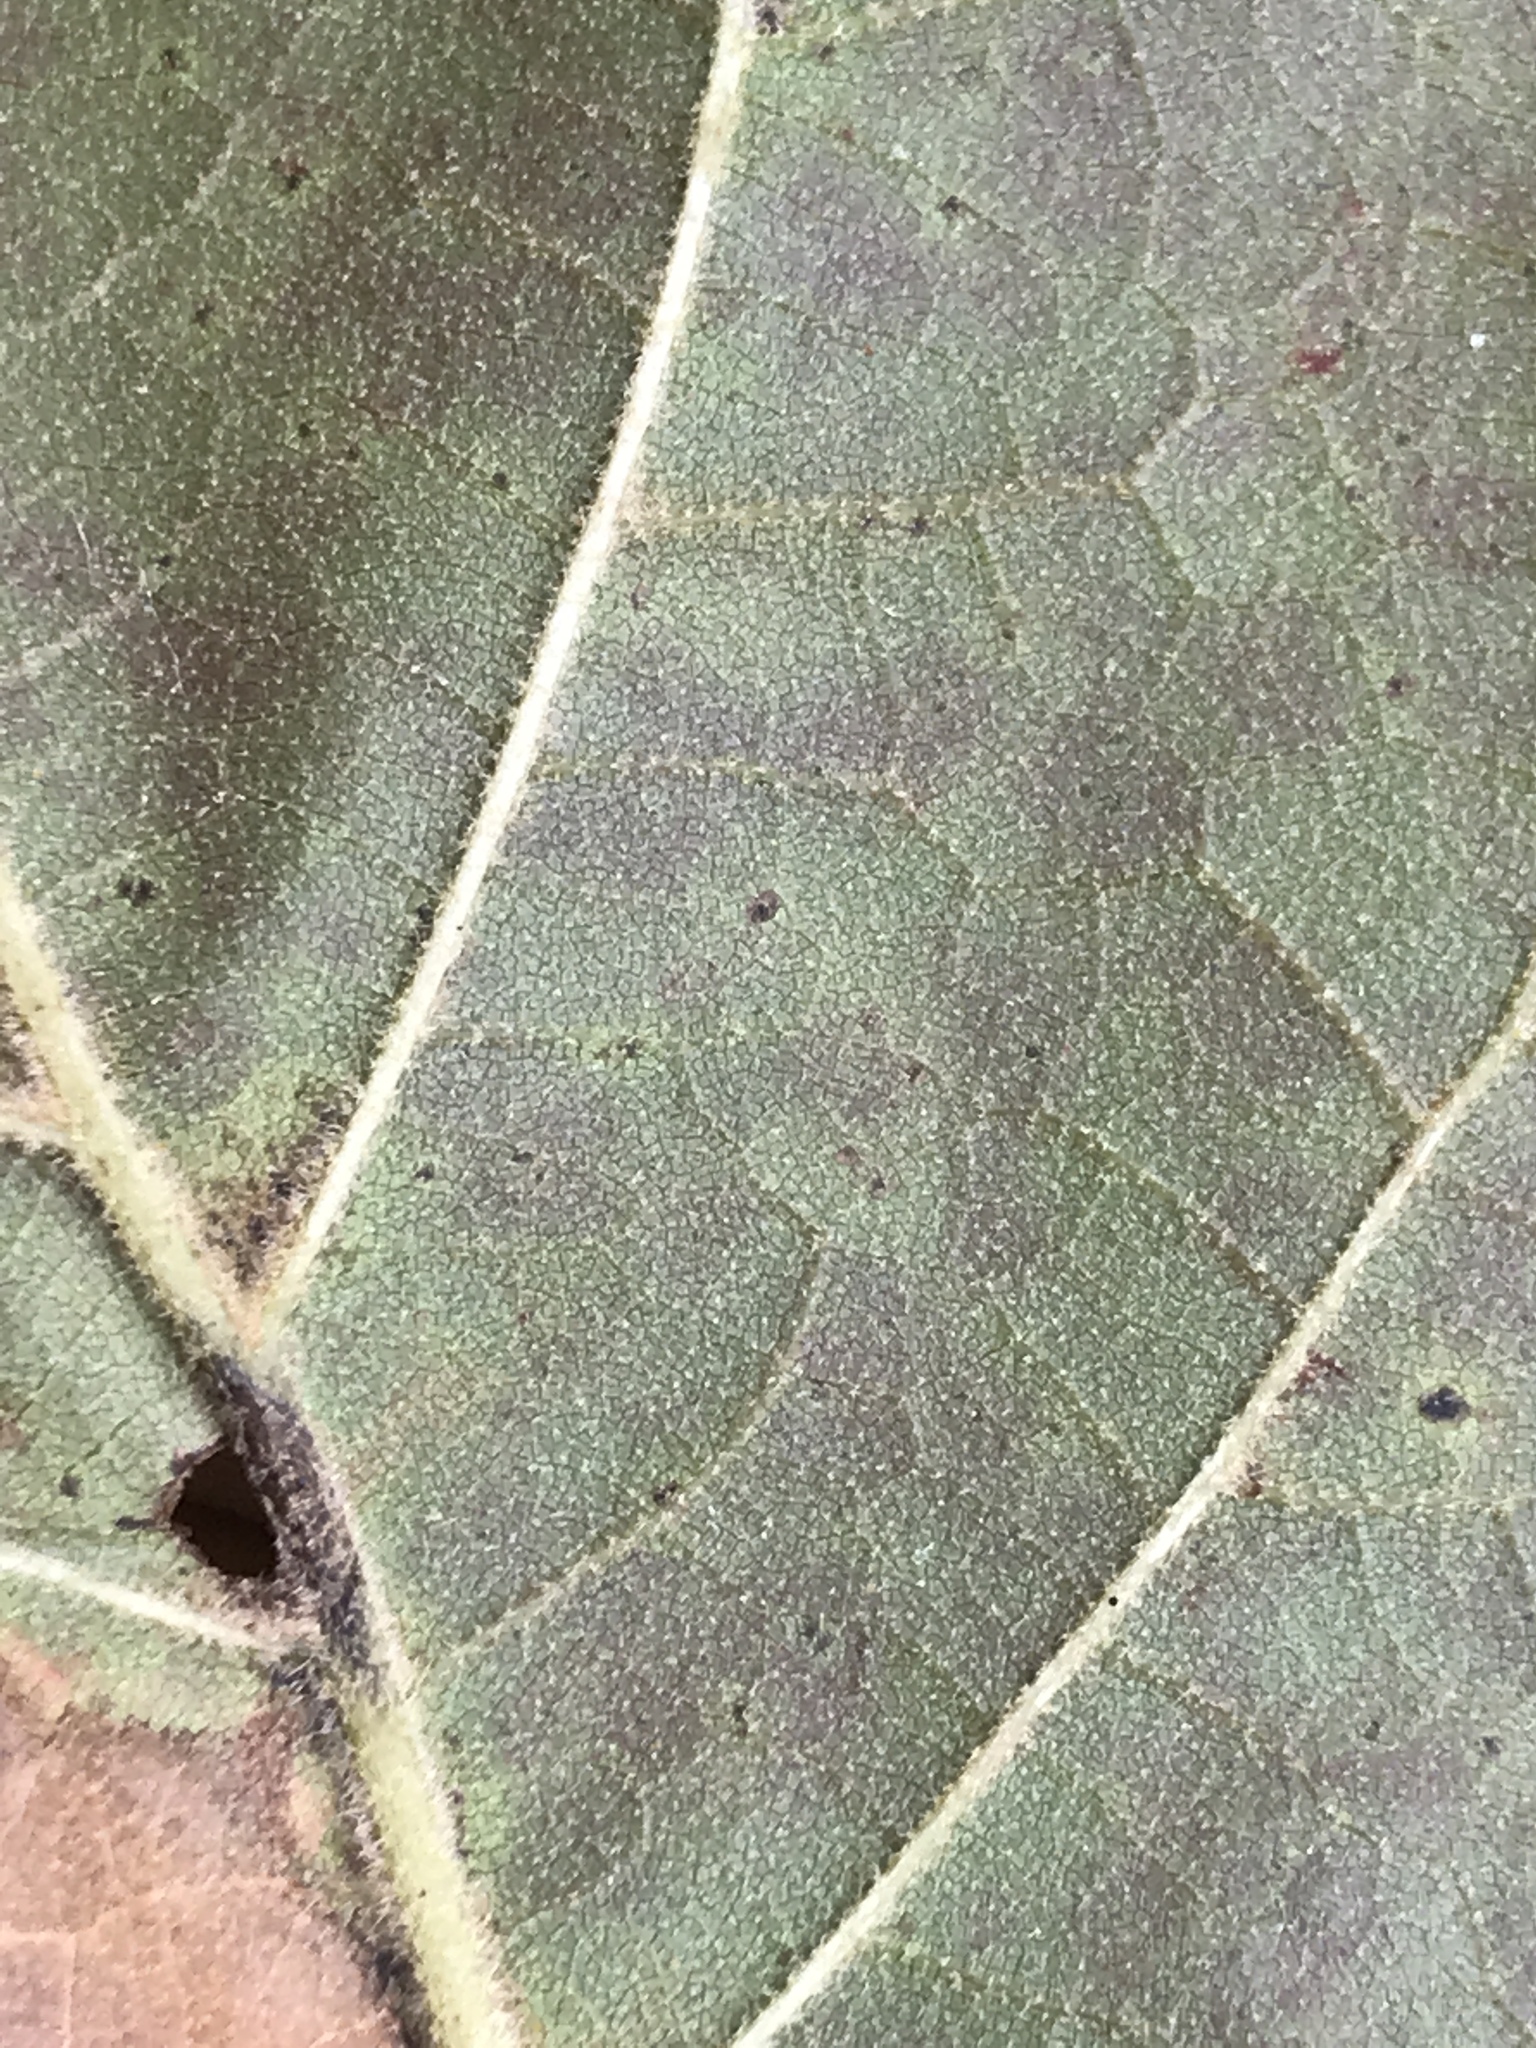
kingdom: Plantae
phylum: Tracheophyta
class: Magnoliopsida
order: Fagales
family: Fagaceae
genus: Quercus
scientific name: Quercus velutina
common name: Black oak
